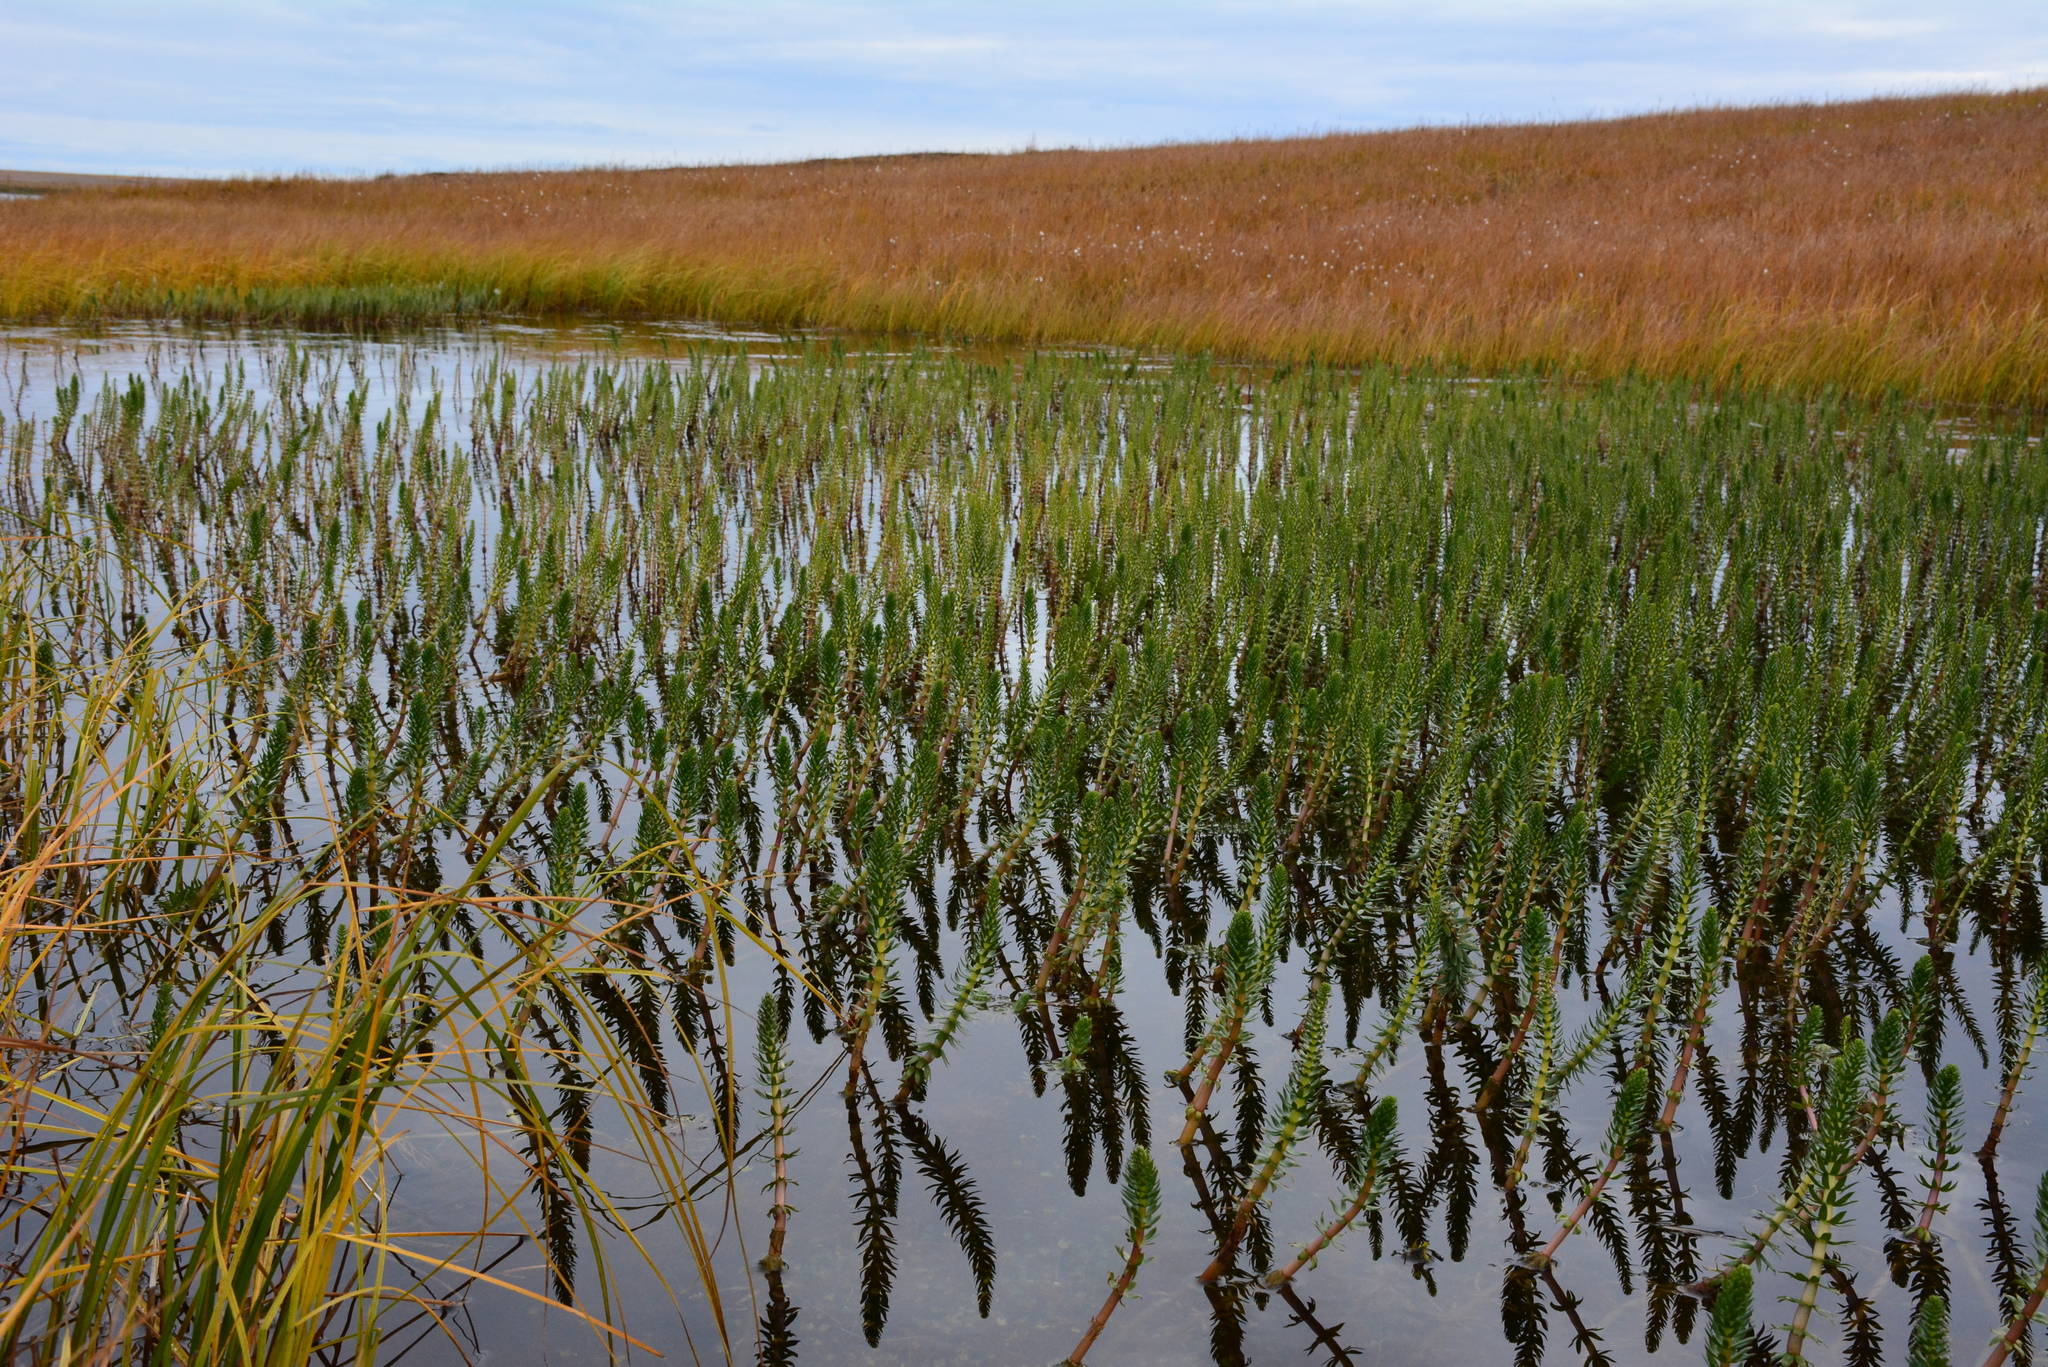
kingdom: Plantae
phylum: Tracheophyta
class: Magnoliopsida
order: Lamiales
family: Plantaginaceae
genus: Hippuris
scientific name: Hippuris vulgaris
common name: Mare's-tail
